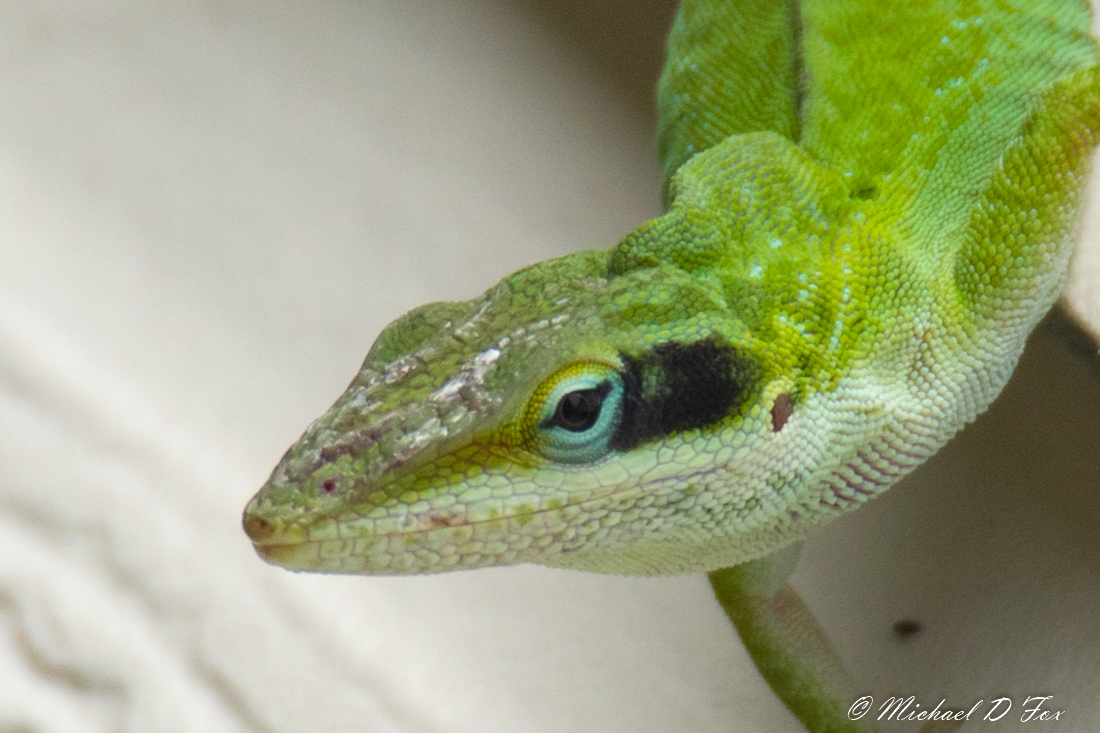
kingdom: Animalia
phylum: Chordata
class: Squamata
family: Dactyloidae
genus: Anolis
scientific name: Anolis carolinensis
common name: Green anole
